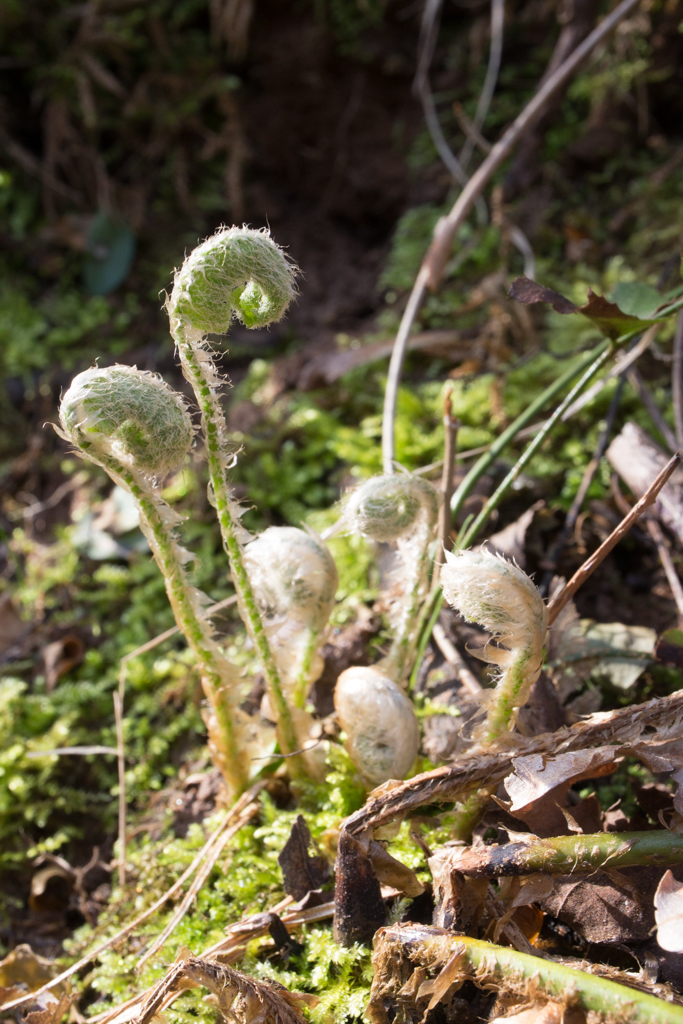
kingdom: Plantae
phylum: Tracheophyta
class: Polypodiopsida
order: Polypodiales
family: Dryopteridaceae
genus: Polystichum
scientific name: Polystichum acrostichoides
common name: Christmas fern
